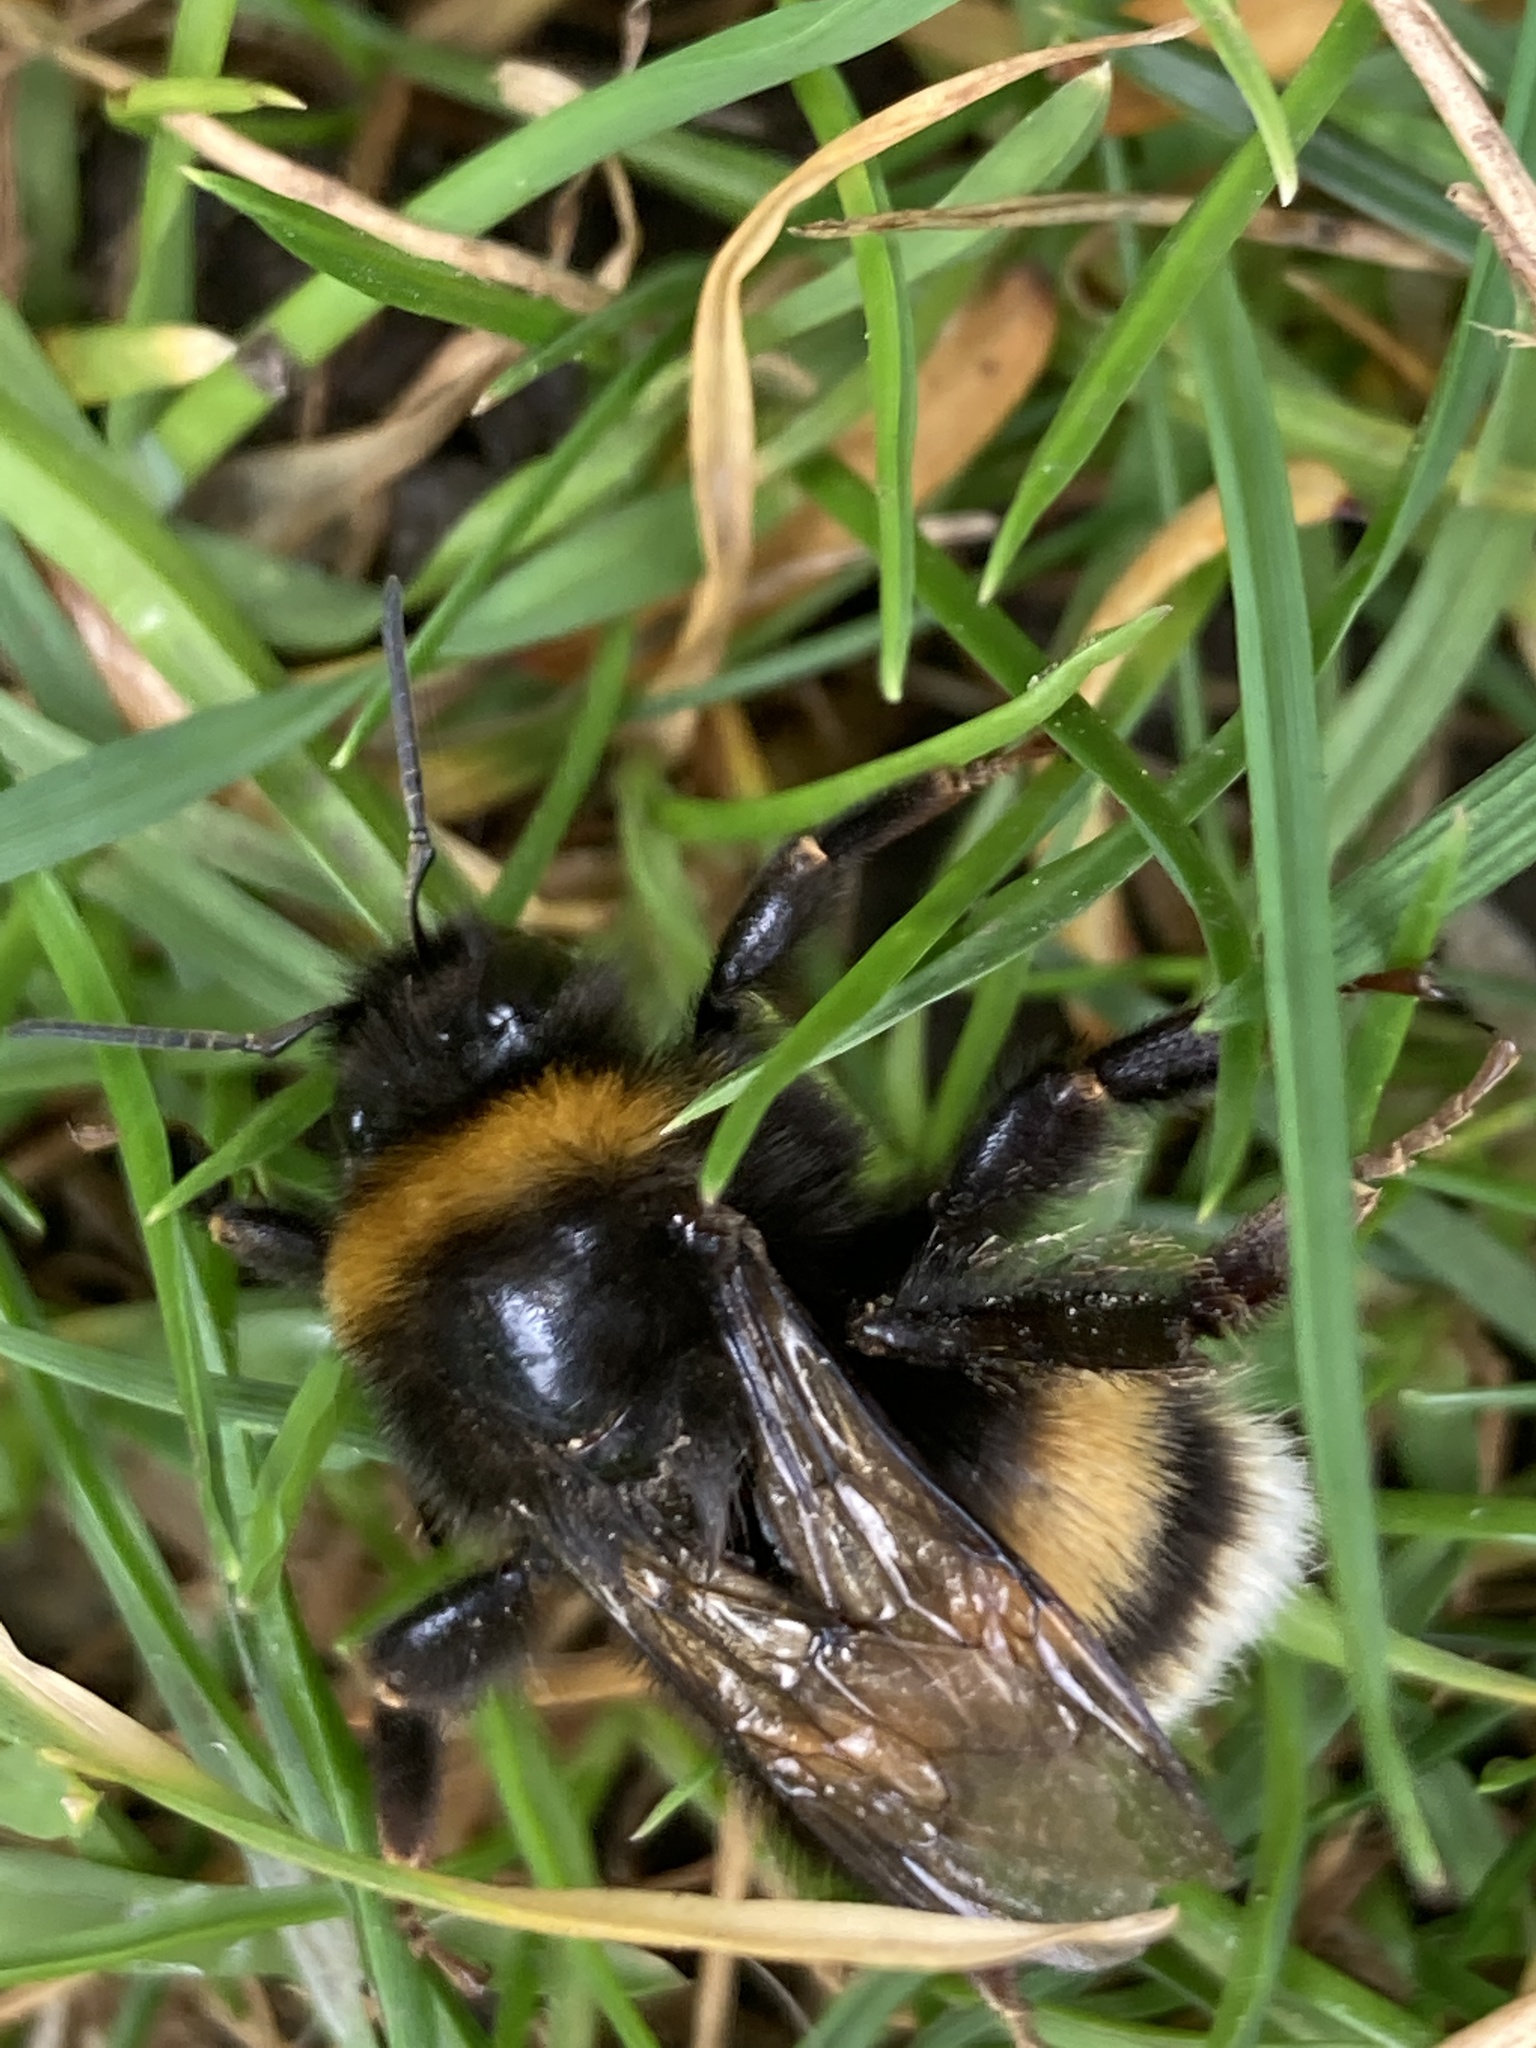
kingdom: Animalia
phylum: Arthropoda
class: Insecta
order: Hymenoptera
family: Apidae
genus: Bombus
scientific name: Bombus terrestris
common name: Buff-tailed bumblebee
